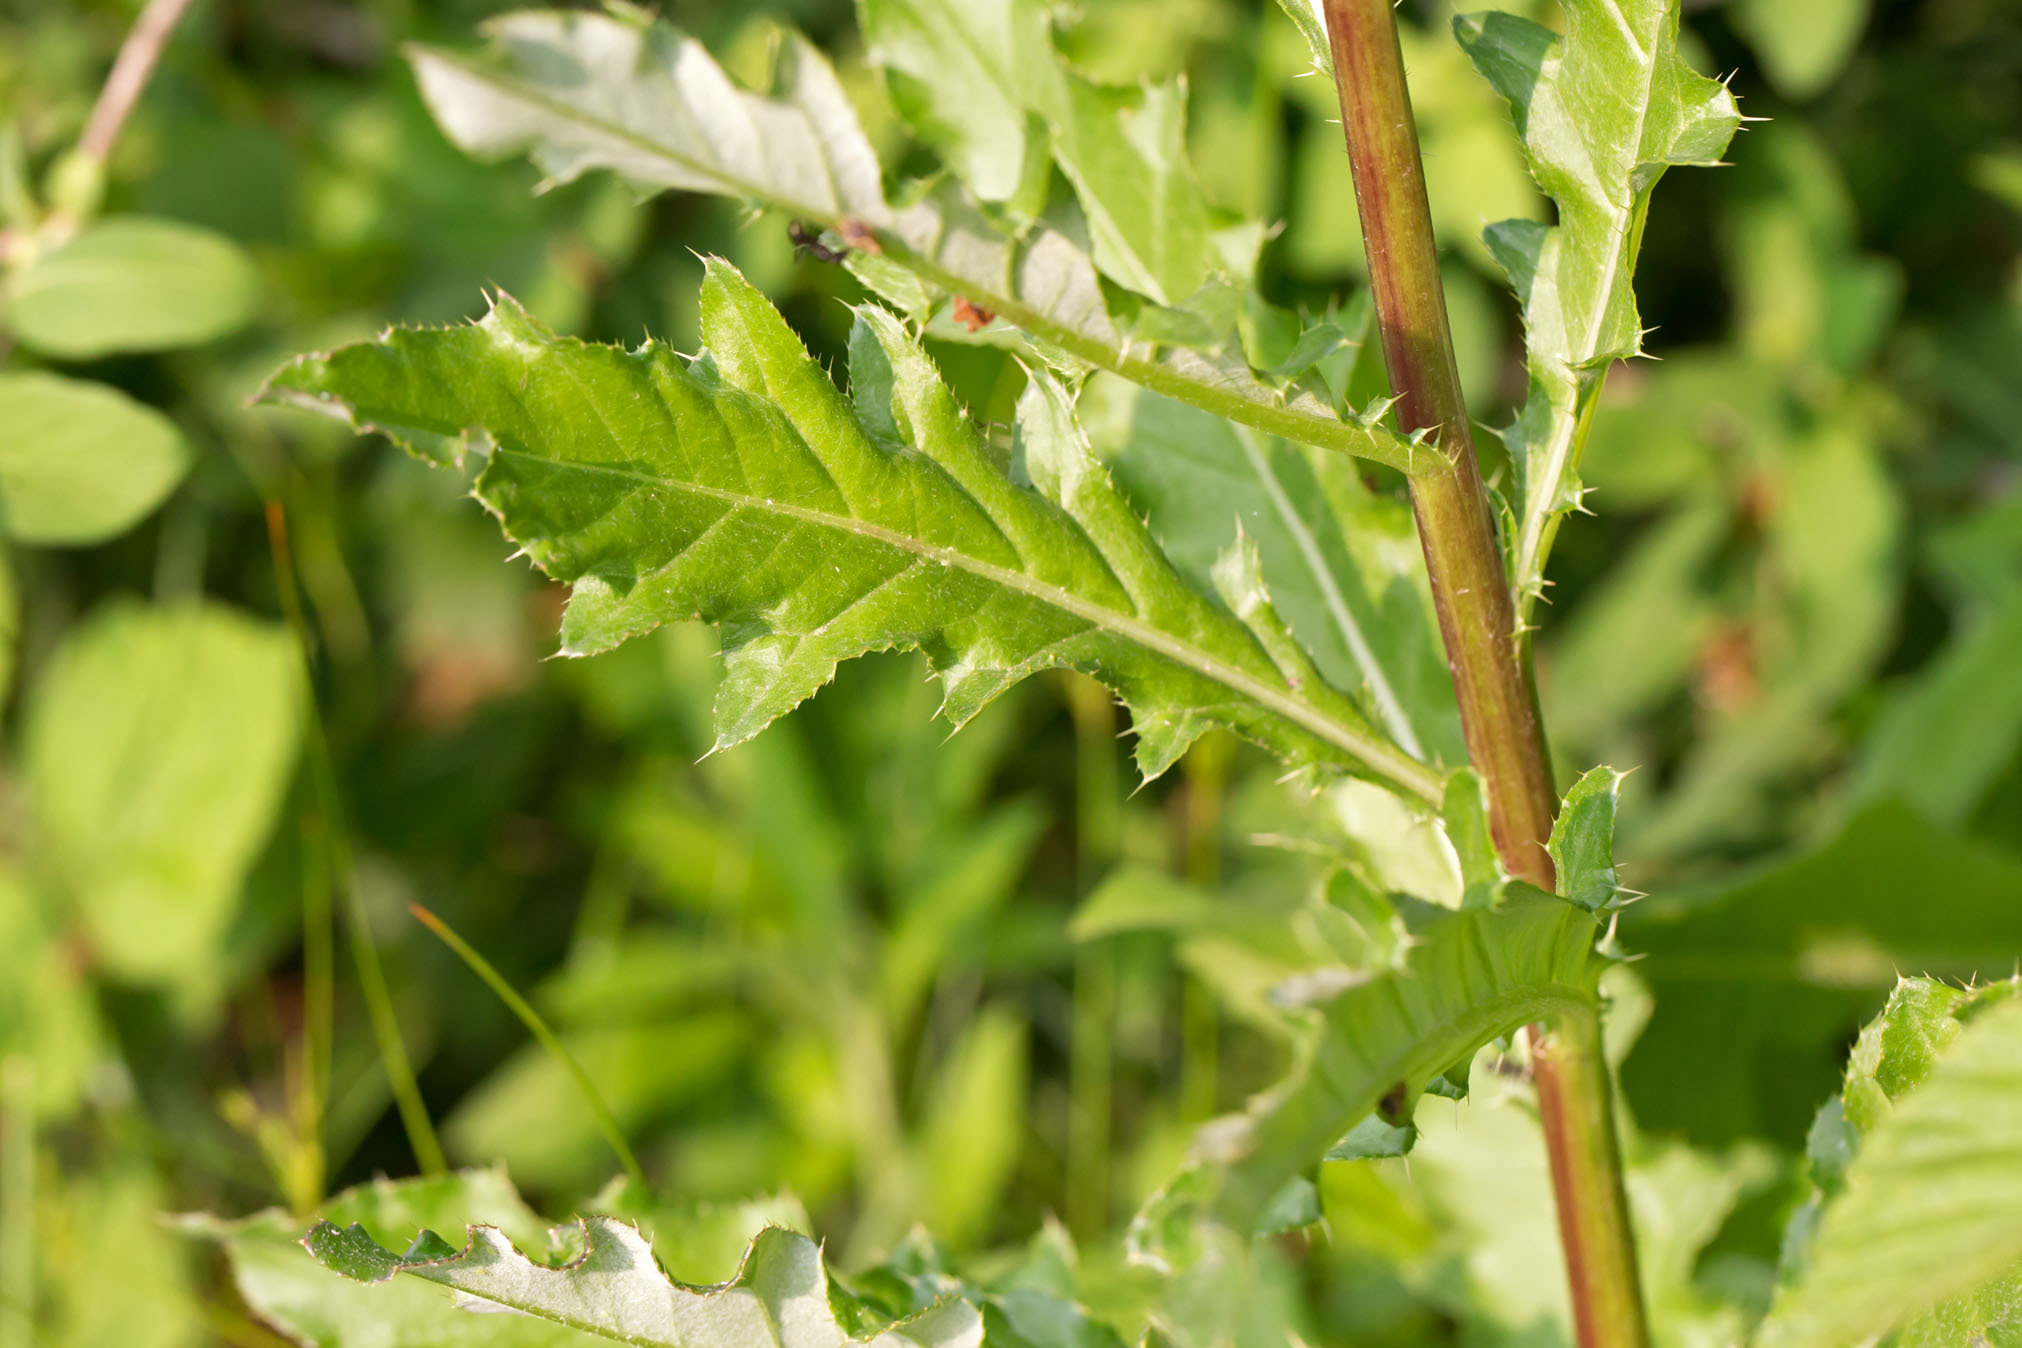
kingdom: Plantae
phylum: Tracheophyta
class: Magnoliopsida
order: Asterales
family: Asteraceae
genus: Cirsium
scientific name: Cirsium arvense
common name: Creeping thistle
